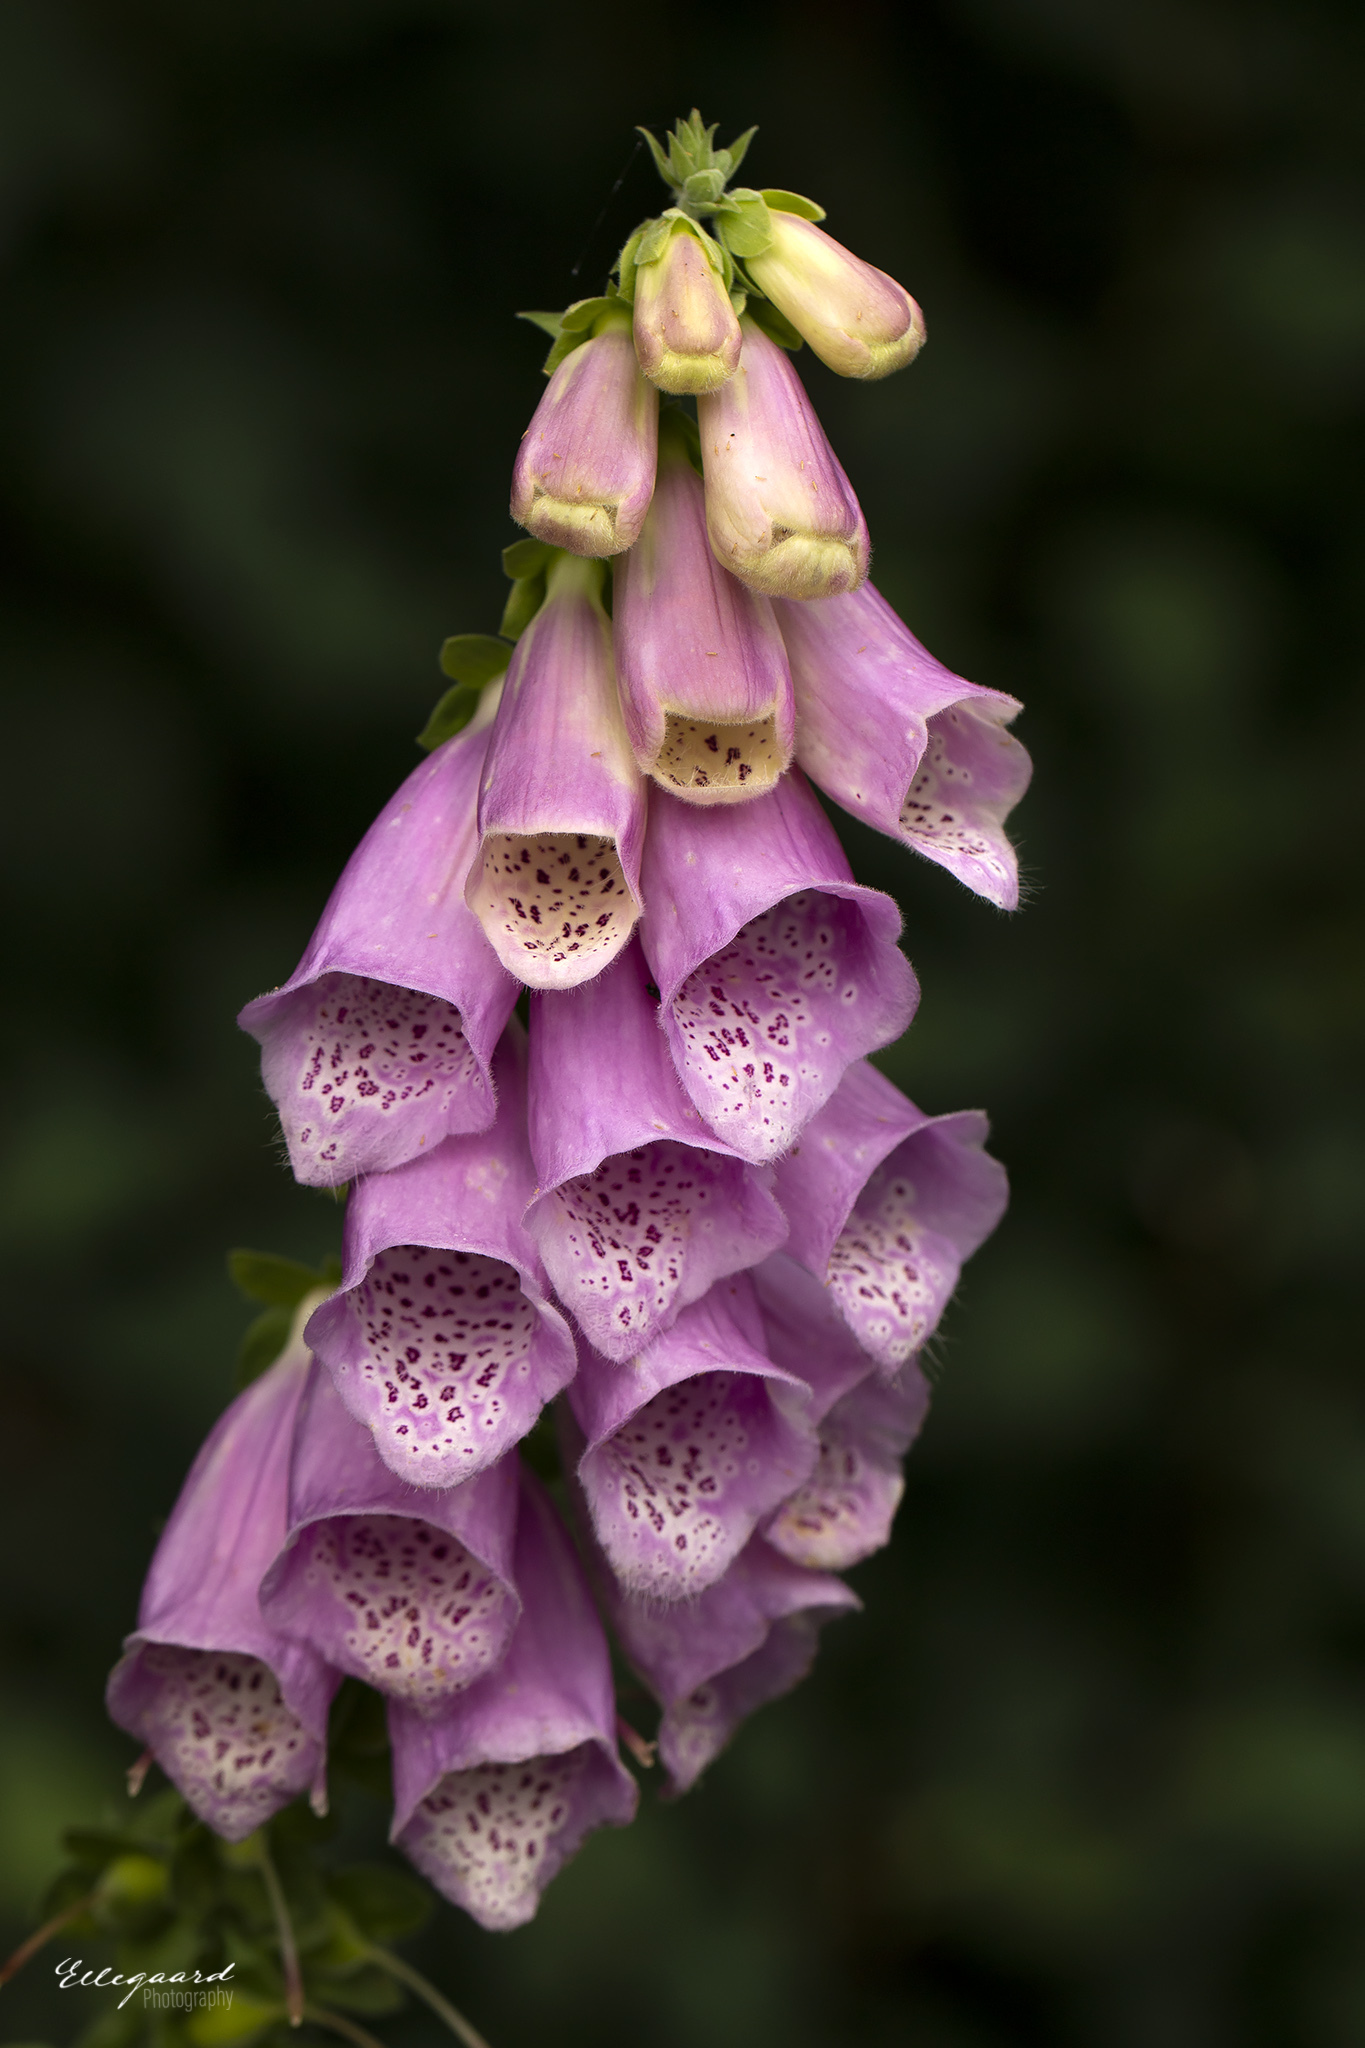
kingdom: Plantae
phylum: Tracheophyta
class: Magnoliopsida
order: Lamiales
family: Plantaginaceae
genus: Digitalis
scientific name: Digitalis purpurea
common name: Foxglove
